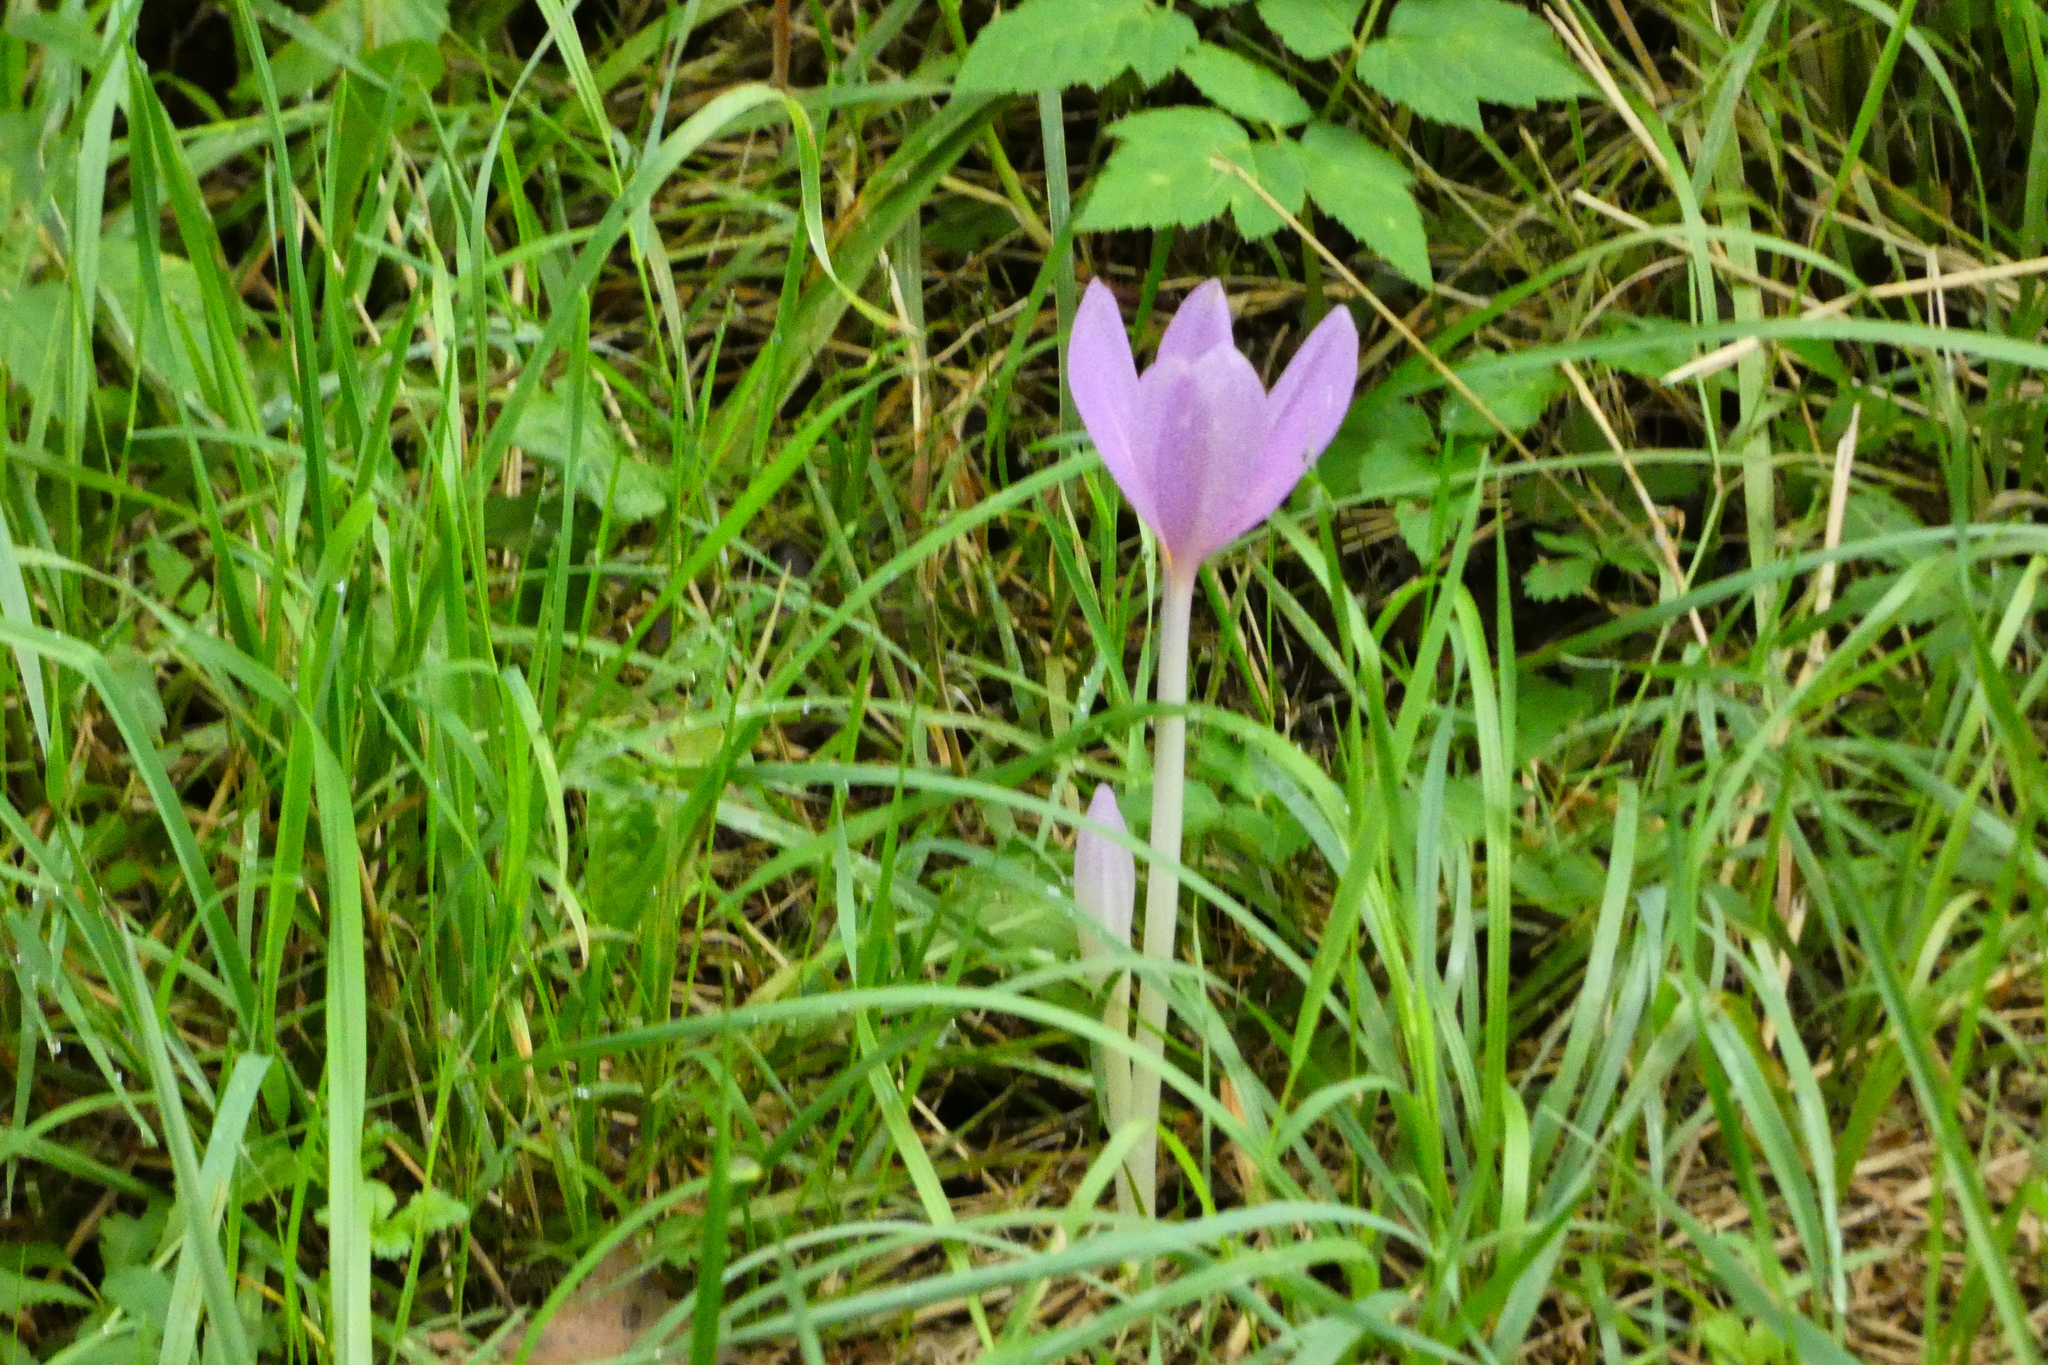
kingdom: Plantae
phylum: Tracheophyta
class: Liliopsida
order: Liliales
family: Colchicaceae
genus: Colchicum
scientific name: Colchicum autumnale
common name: Autumn crocus
